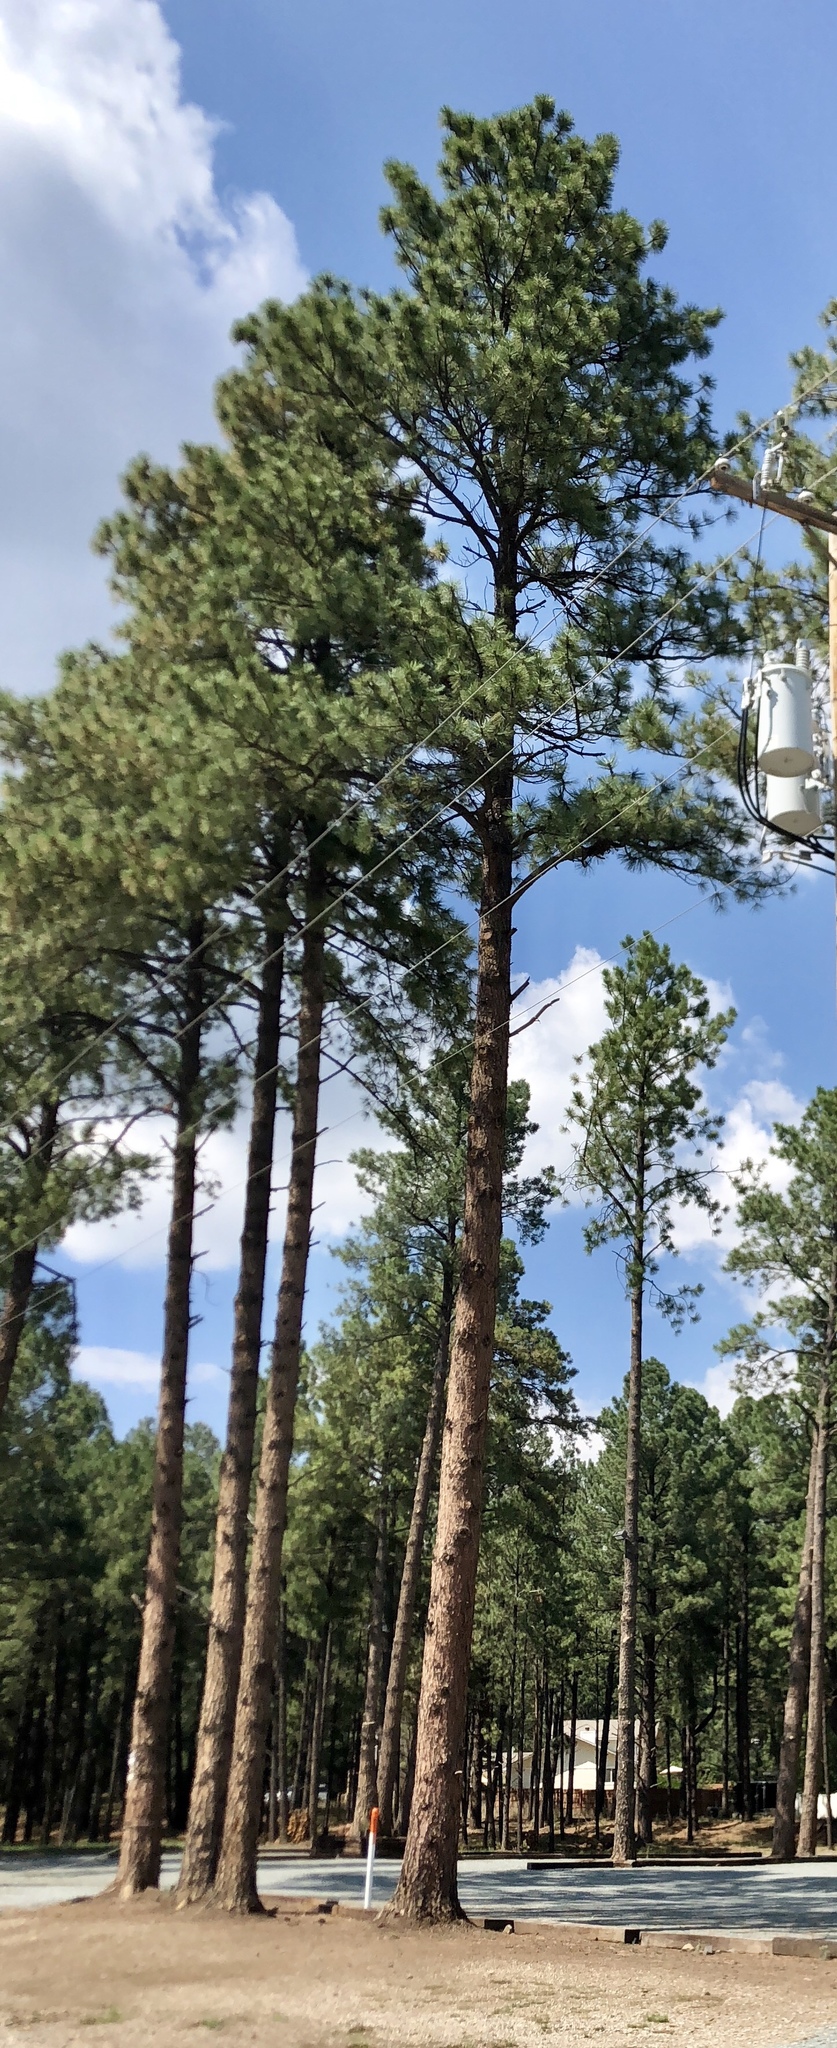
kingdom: Plantae
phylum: Tracheophyta
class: Pinopsida
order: Pinales
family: Pinaceae
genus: Pinus
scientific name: Pinus ponderosa
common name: Western yellow-pine
